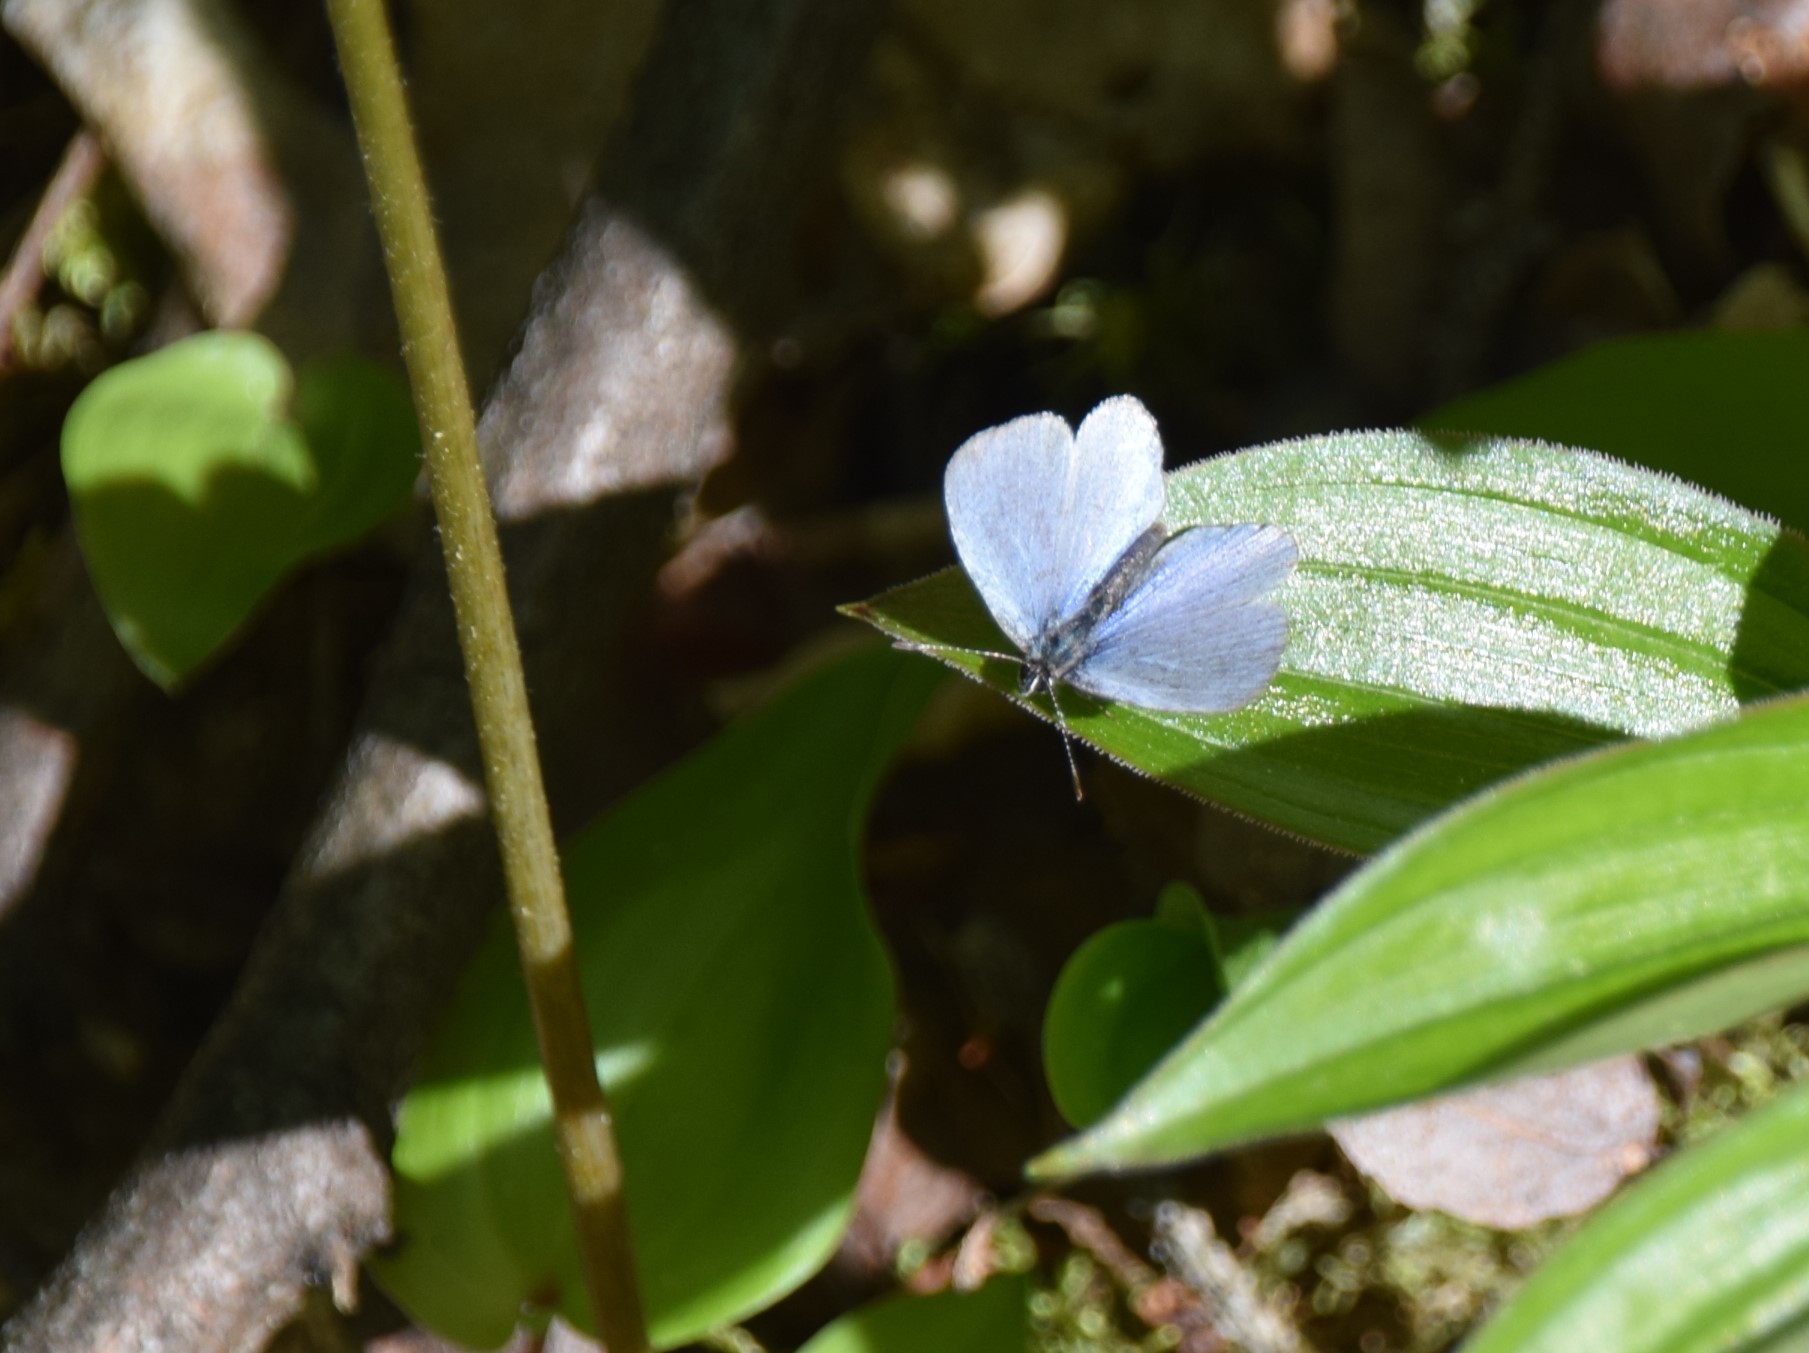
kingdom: Animalia
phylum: Arthropoda
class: Insecta
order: Lepidoptera
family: Lycaenidae
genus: Celastrina
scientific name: Celastrina lucia
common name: Lucia azure
